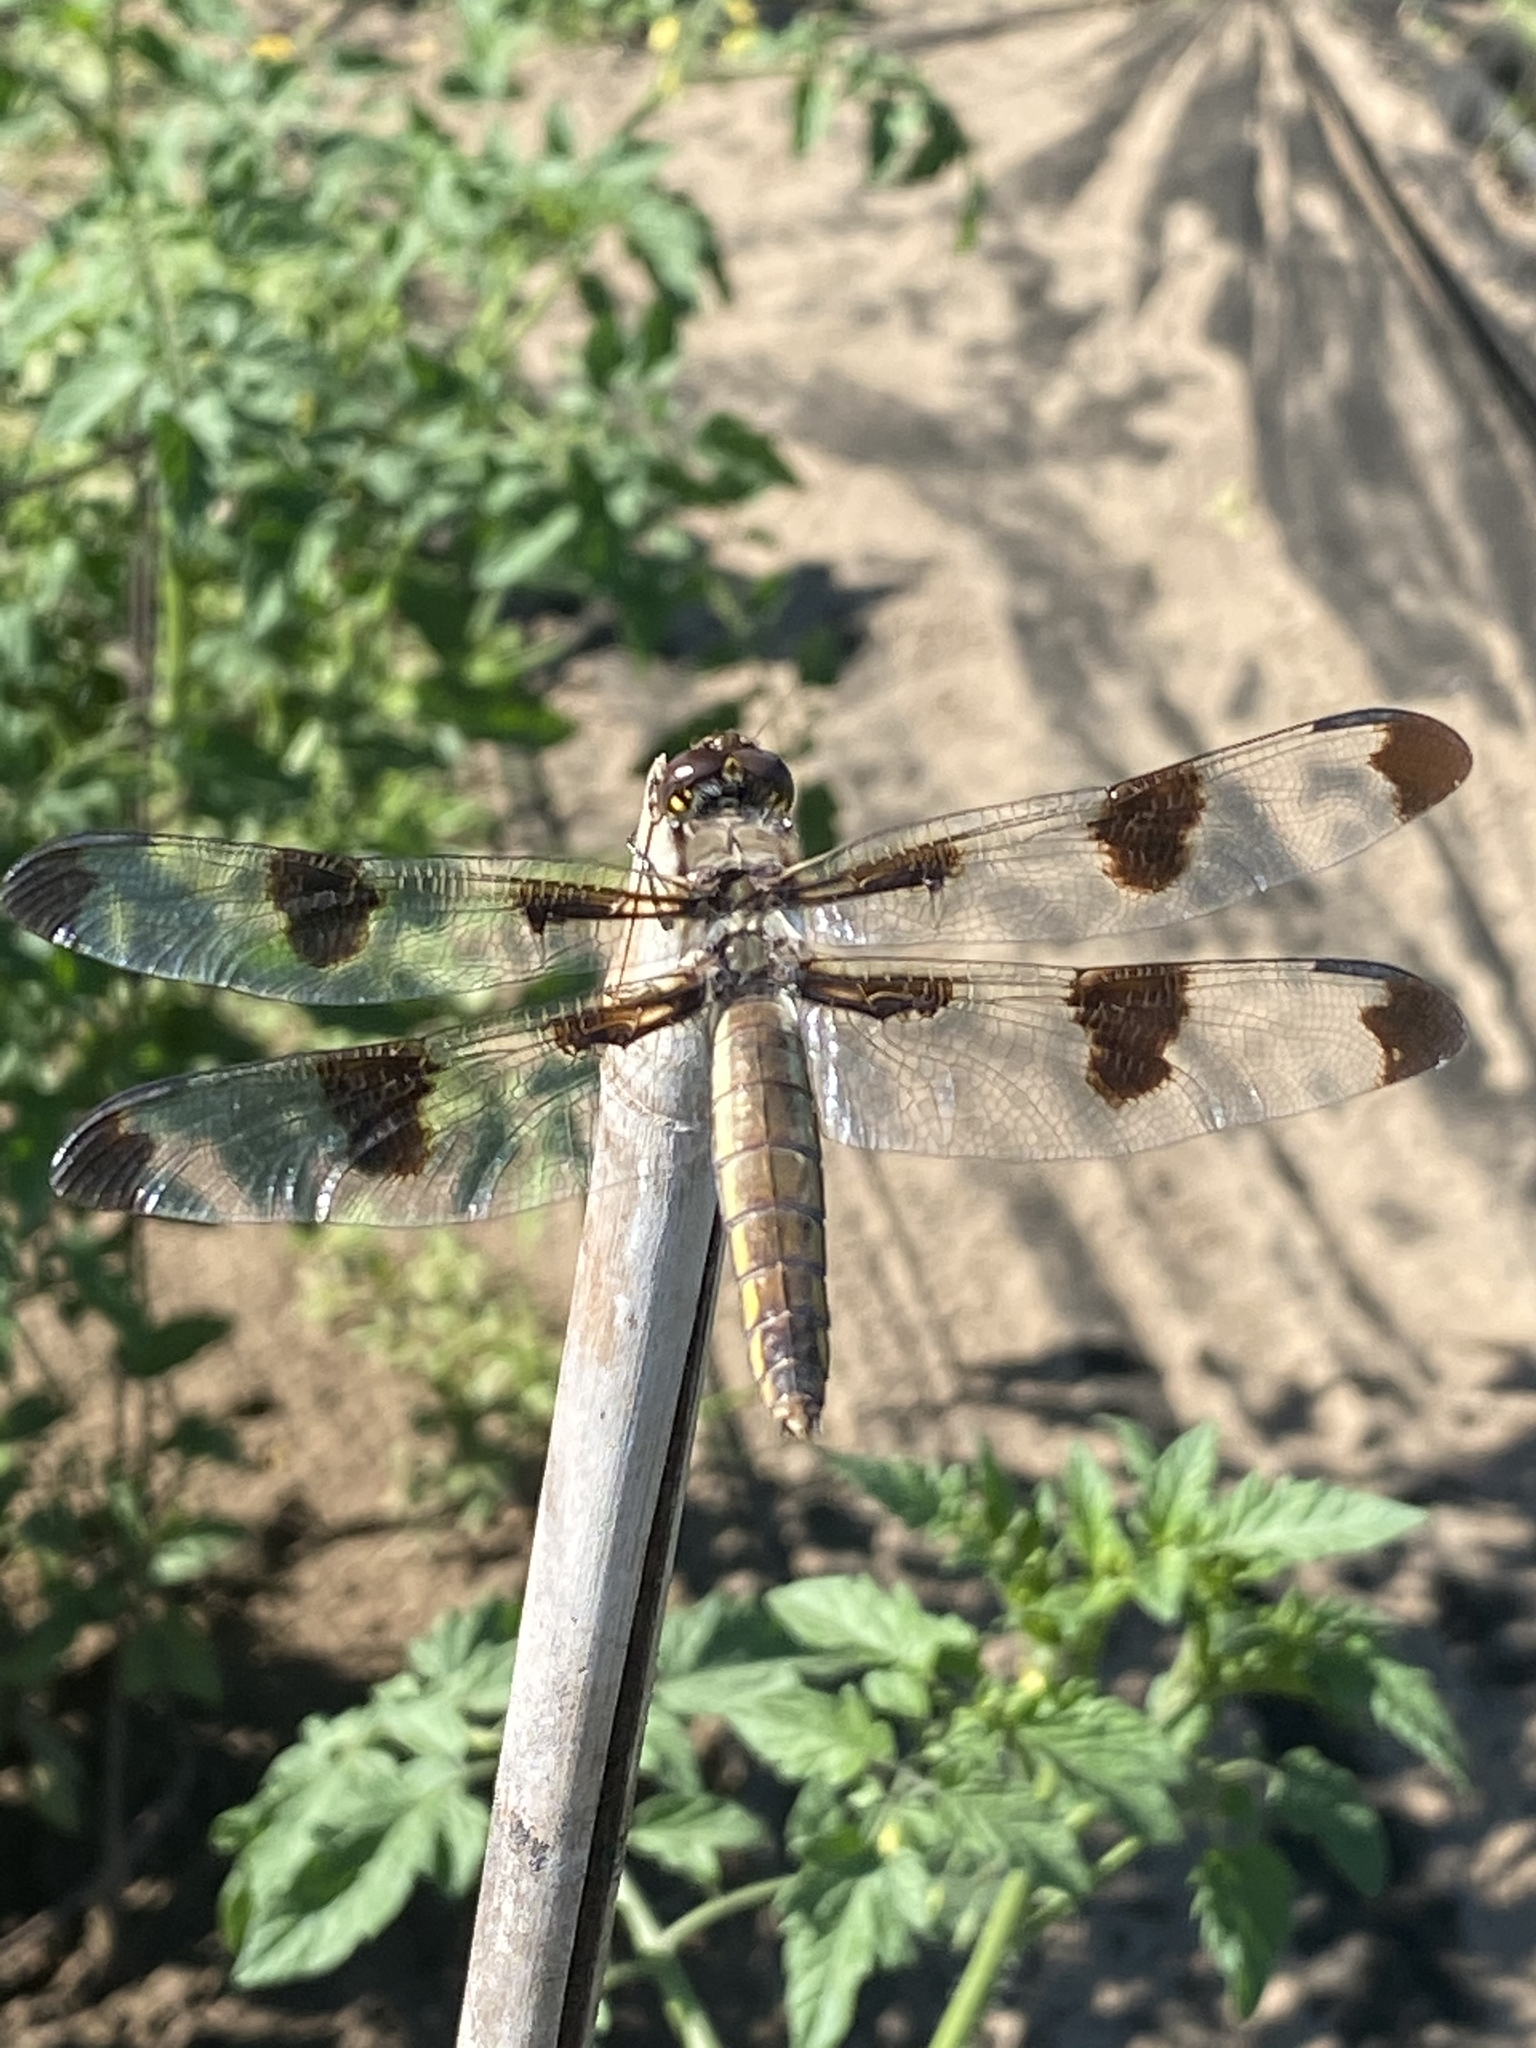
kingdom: Animalia
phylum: Arthropoda
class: Insecta
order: Odonata
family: Libellulidae
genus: Libellula
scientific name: Libellula pulchella
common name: Twelve-spotted skimmer
